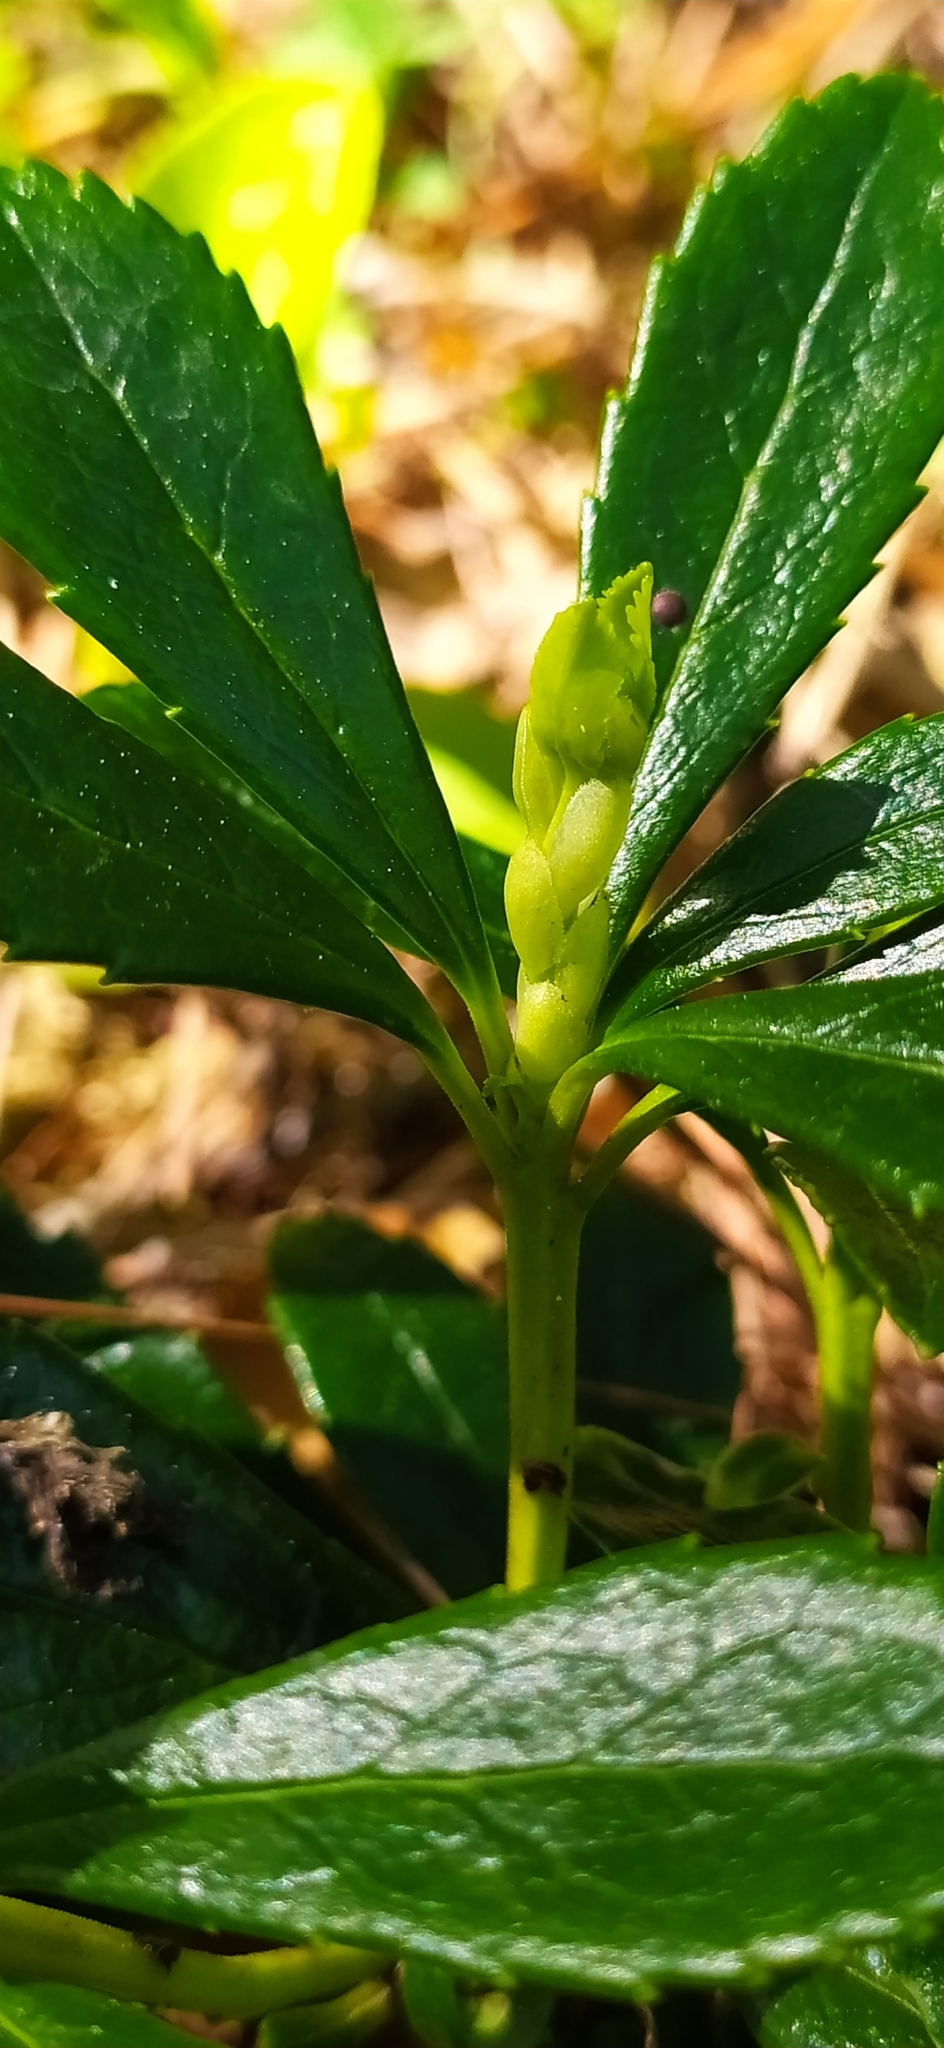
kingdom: Plantae
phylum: Tracheophyta
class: Magnoliopsida
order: Ericales
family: Ericaceae
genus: Chimaphila
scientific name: Chimaphila umbellata
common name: Pipsissewa
